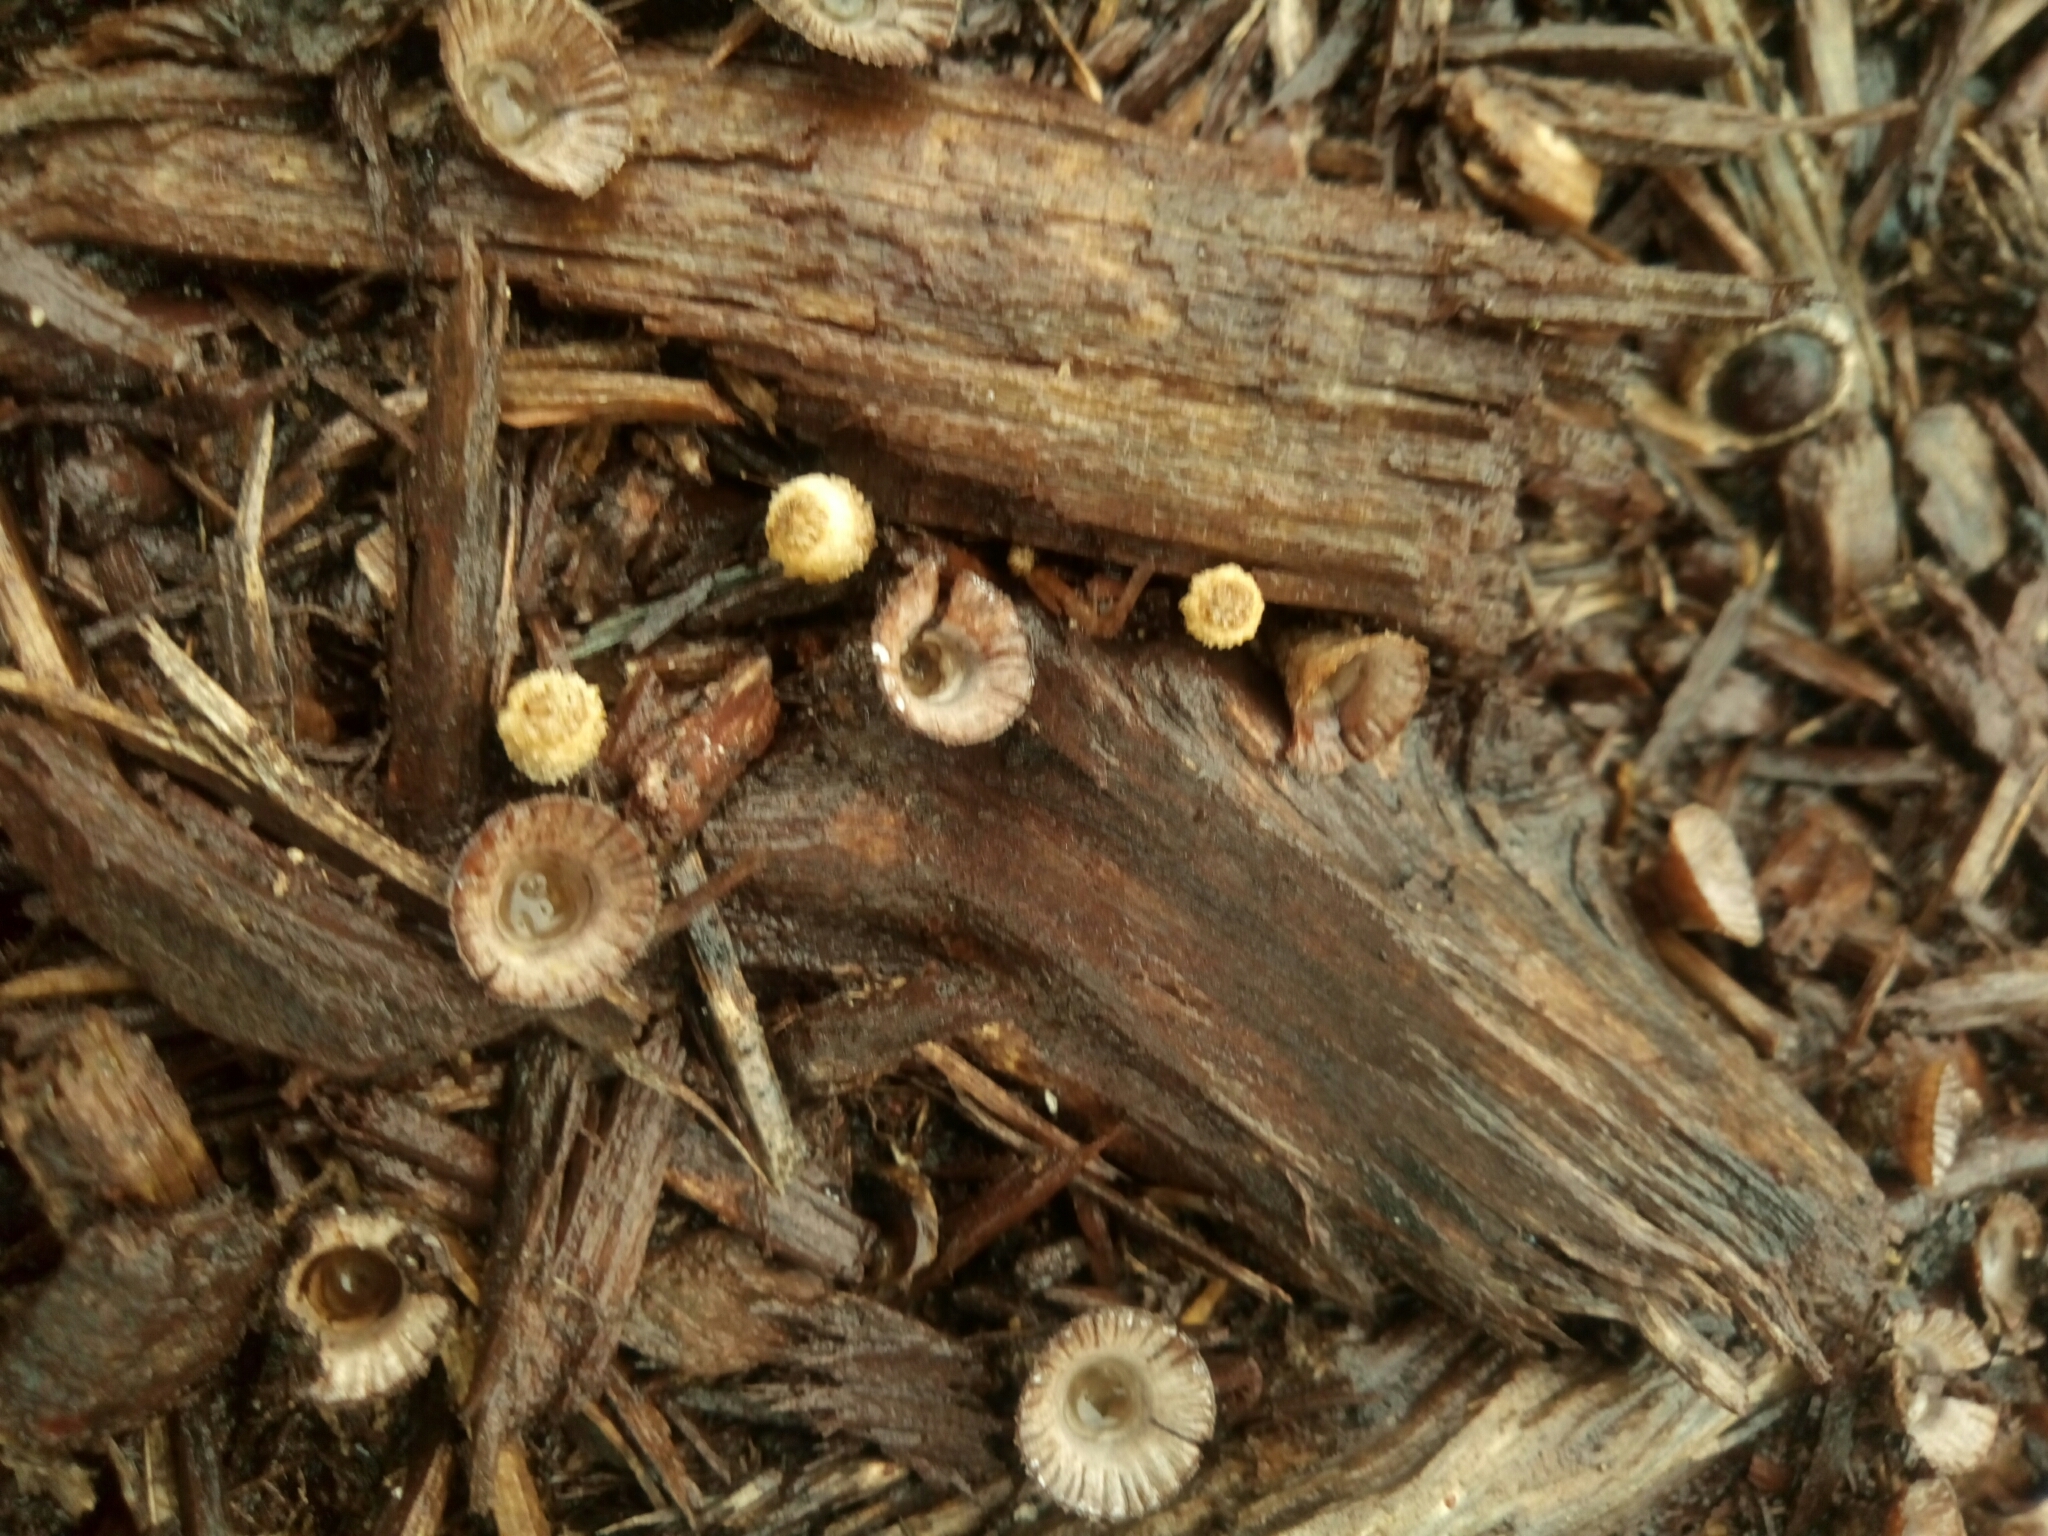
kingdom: Fungi
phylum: Basidiomycota
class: Agaricomycetes
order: Agaricales
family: Agaricaceae
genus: Cyathus
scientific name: Cyathus striatus
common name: Fluted bird's nest
